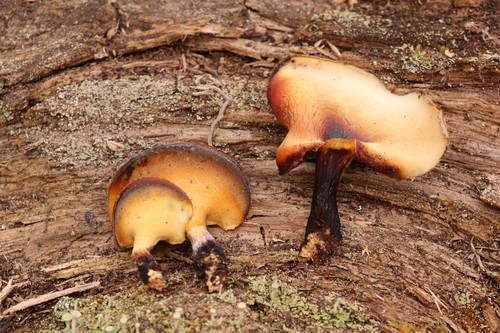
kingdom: Fungi
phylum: Basidiomycota
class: Agaricomycetes
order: Polyporales
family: Polyporaceae
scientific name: Polyporaceae
